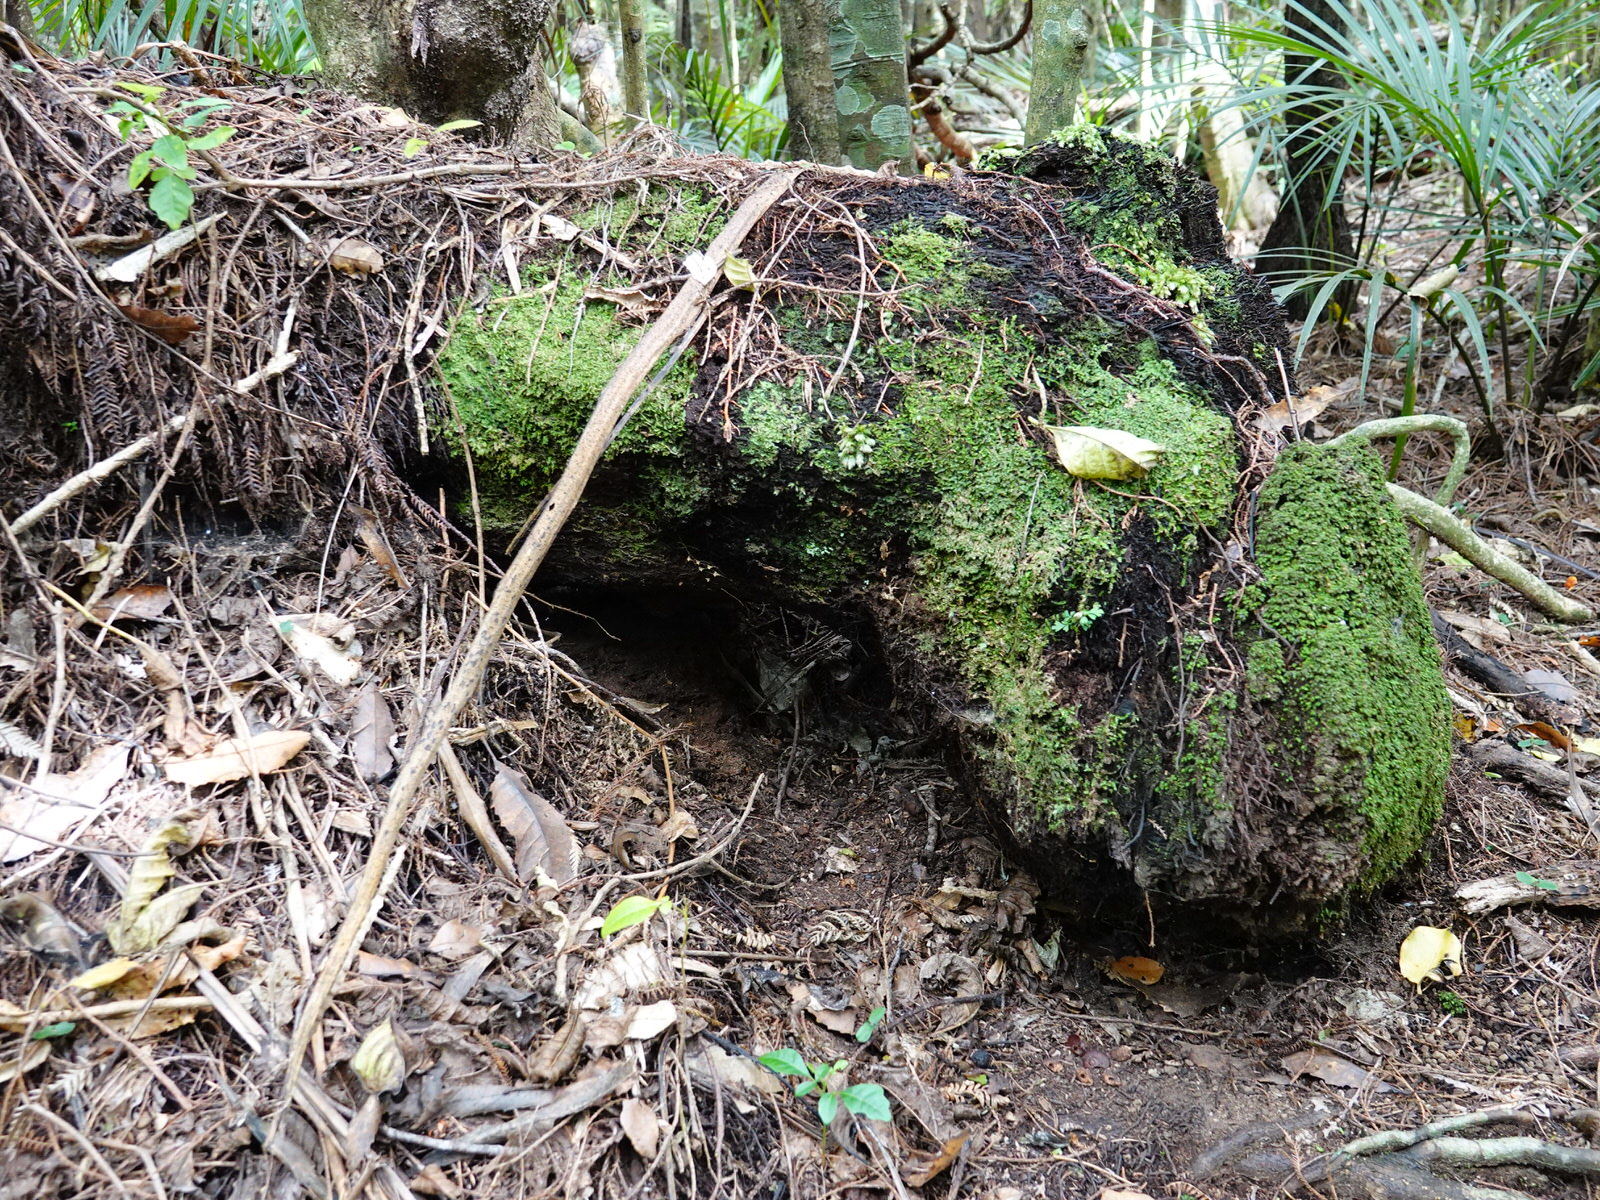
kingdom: Animalia
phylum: Mollusca
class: Gastropoda
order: Stylommatophora
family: Rhytididae
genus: Rhytida
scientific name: Rhytida greenwoodi
